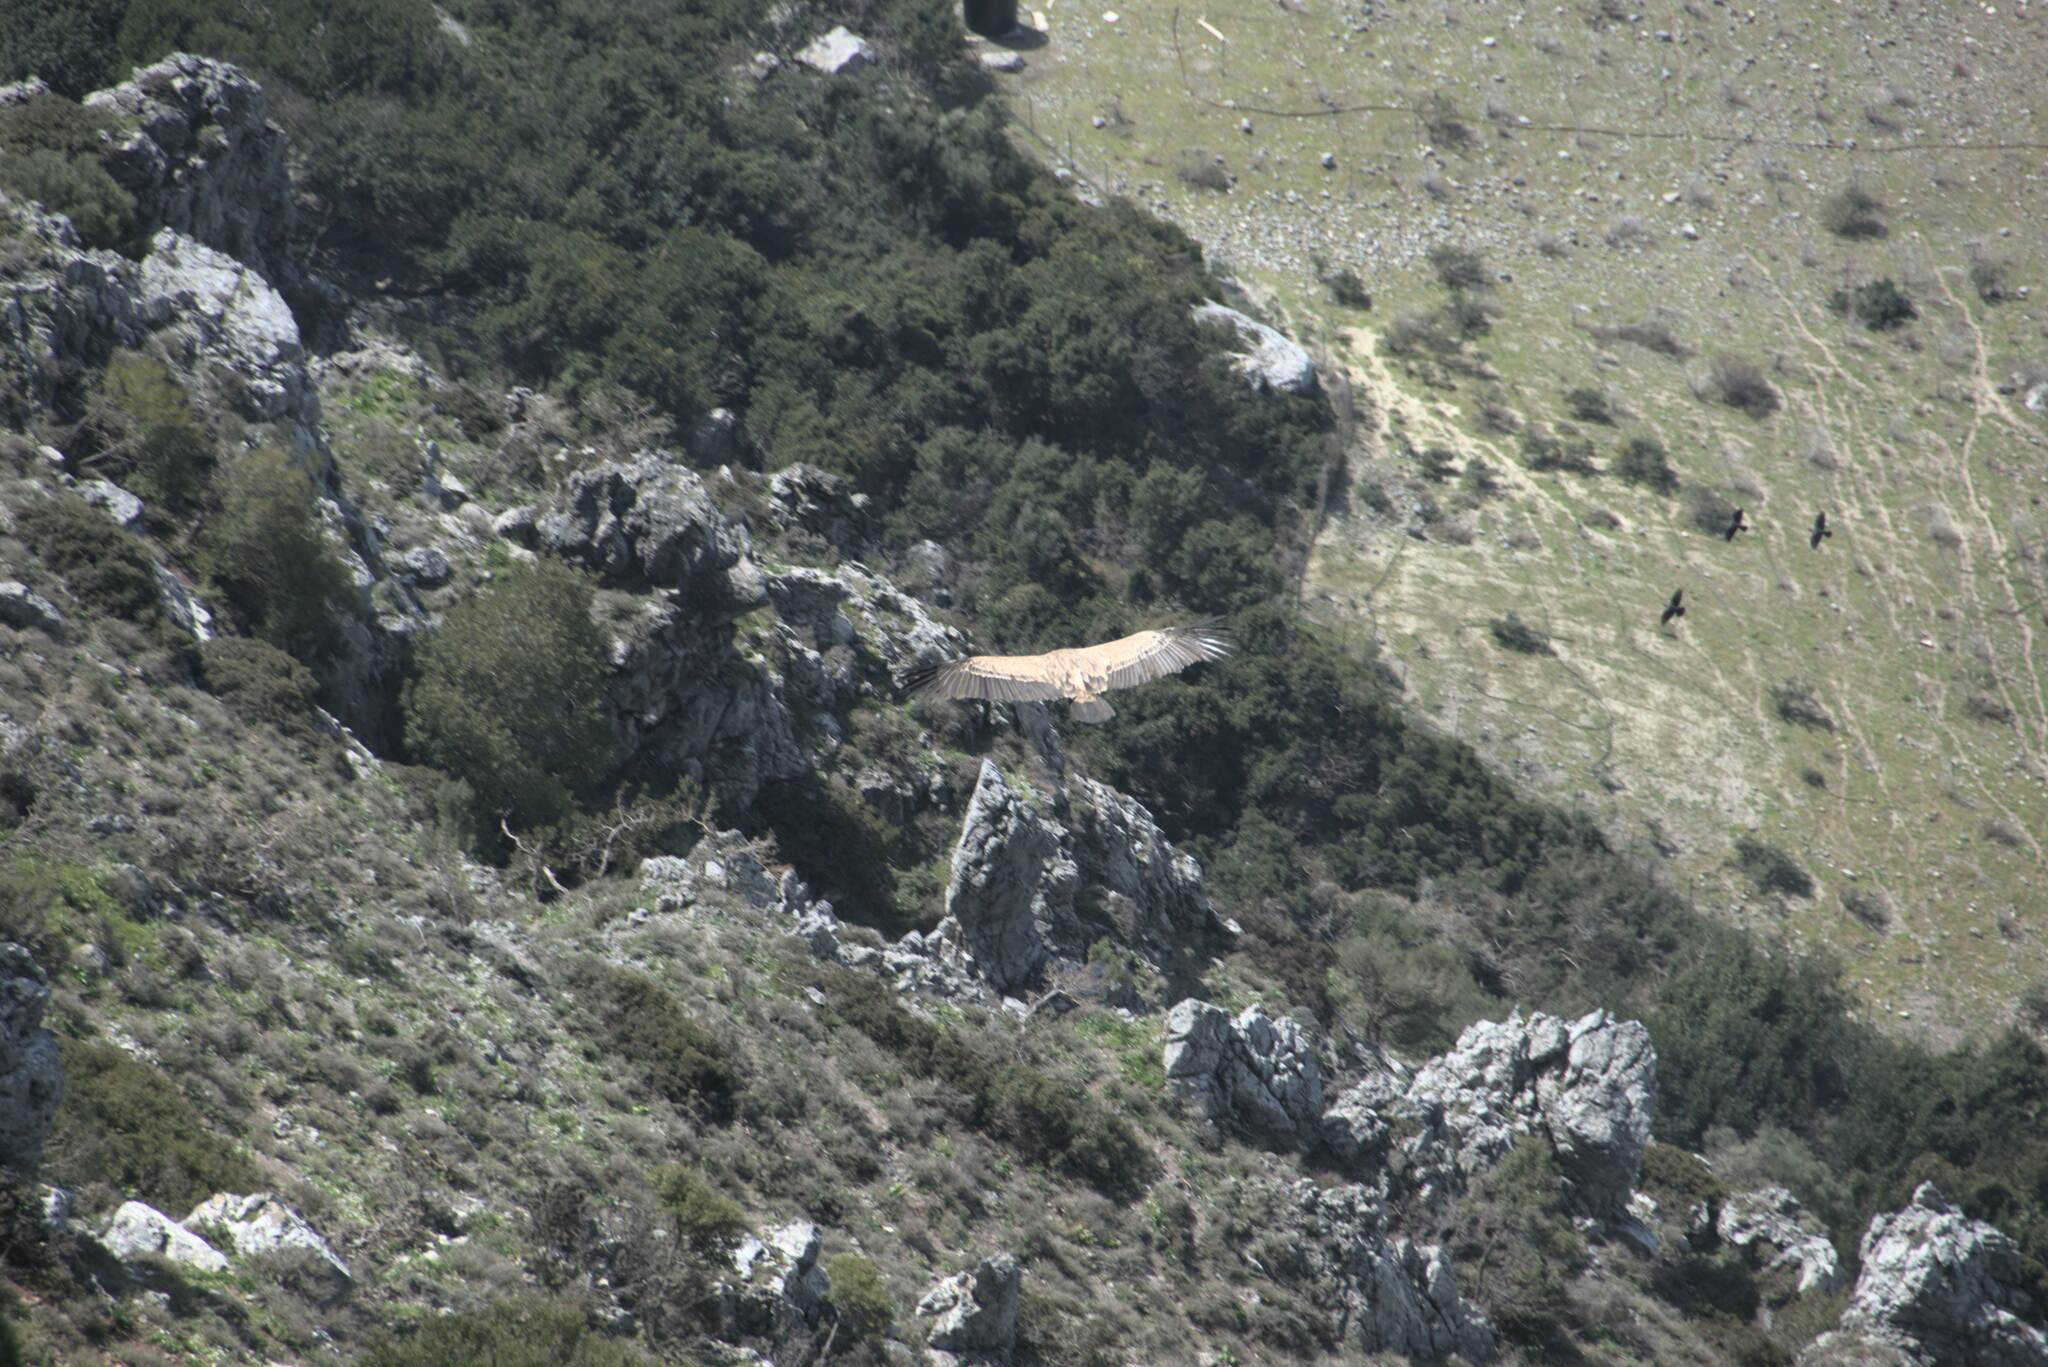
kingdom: Animalia
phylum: Chordata
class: Aves
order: Accipitriformes
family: Accipitridae
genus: Gyps
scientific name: Gyps fulvus
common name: Griffon vulture
